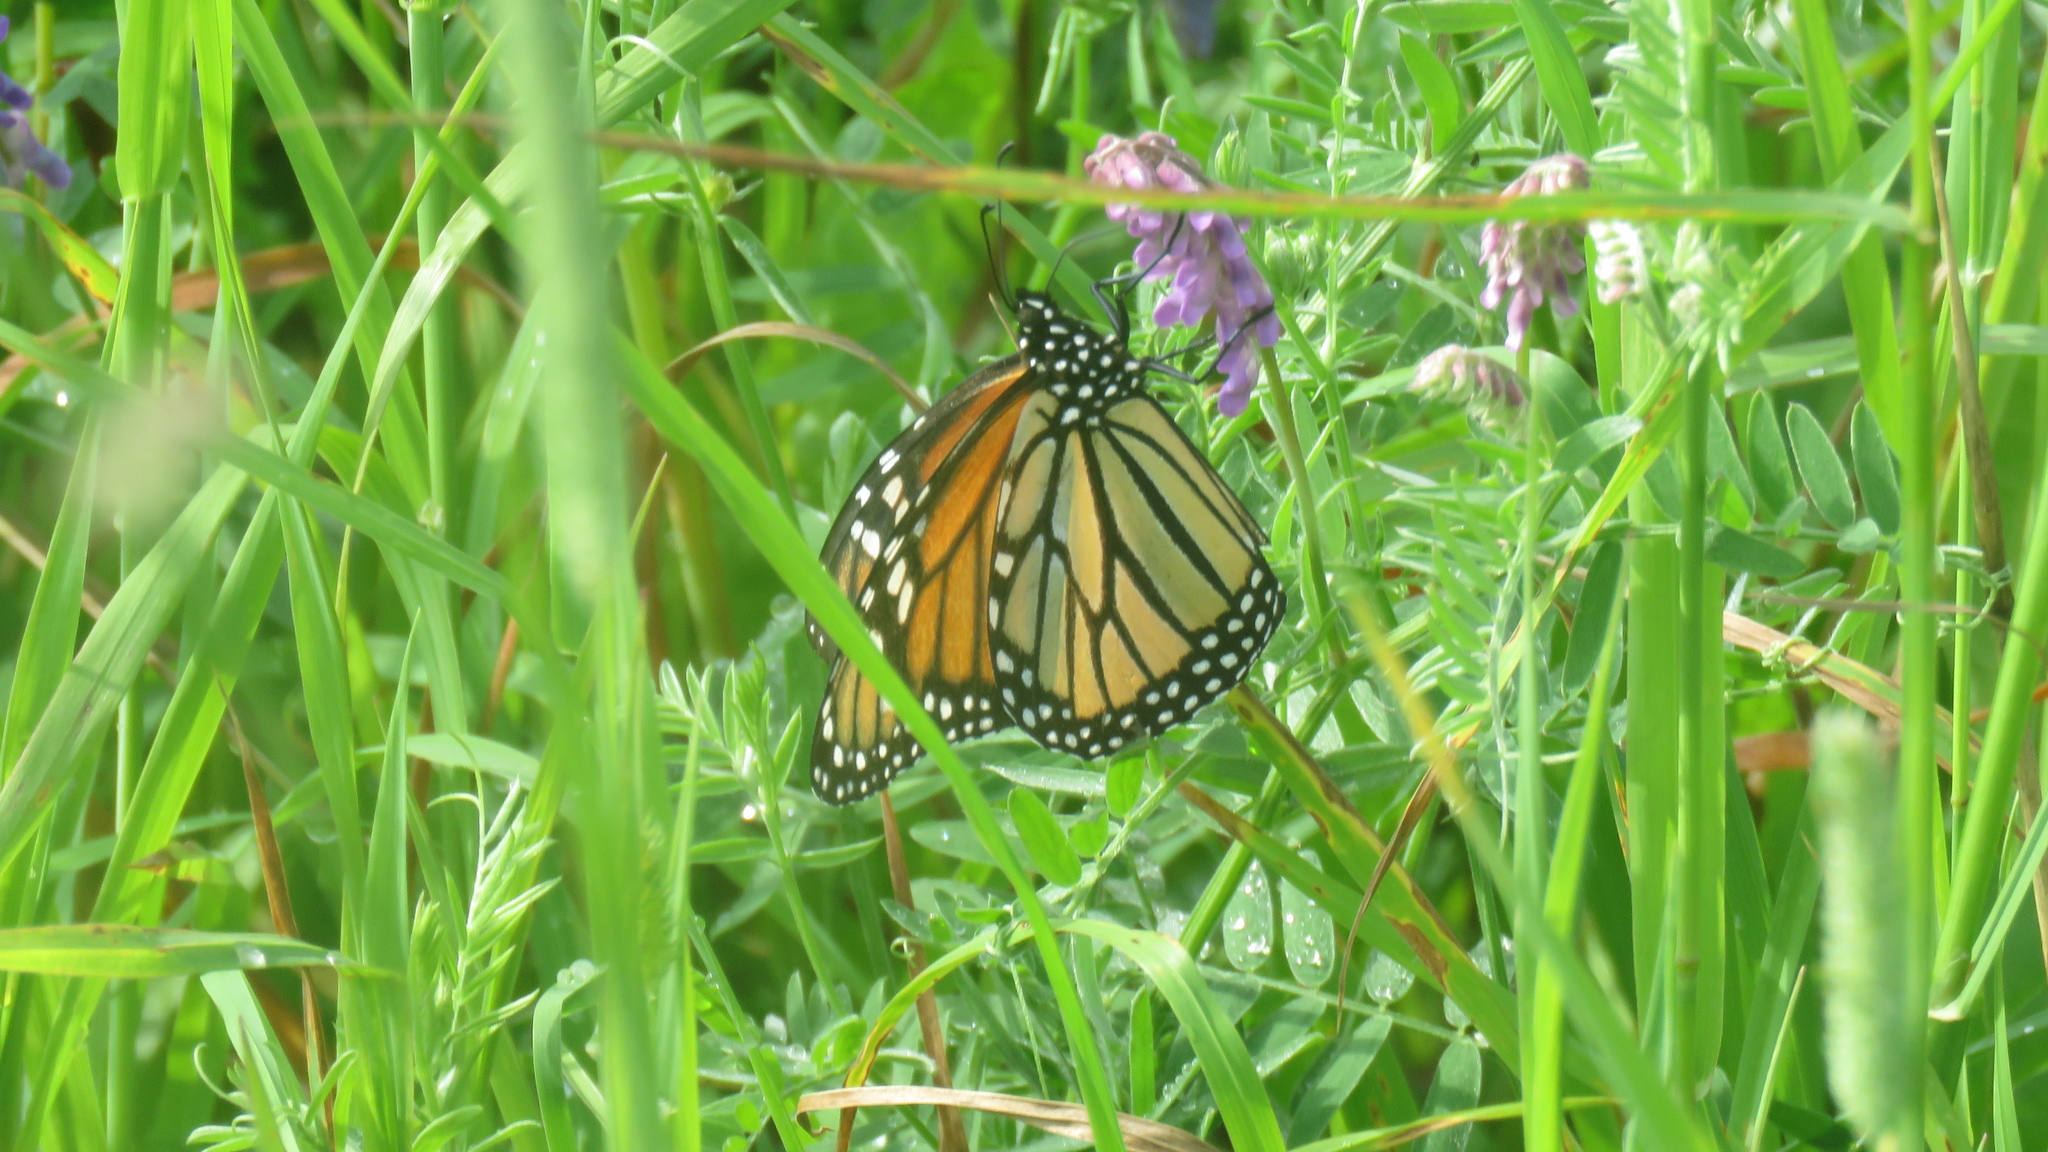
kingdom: Animalia
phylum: Arthropoda
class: Insecta
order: Lepidoptera
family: Nymphalidae
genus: Danaus
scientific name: Danaus plexippus
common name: Monarch
